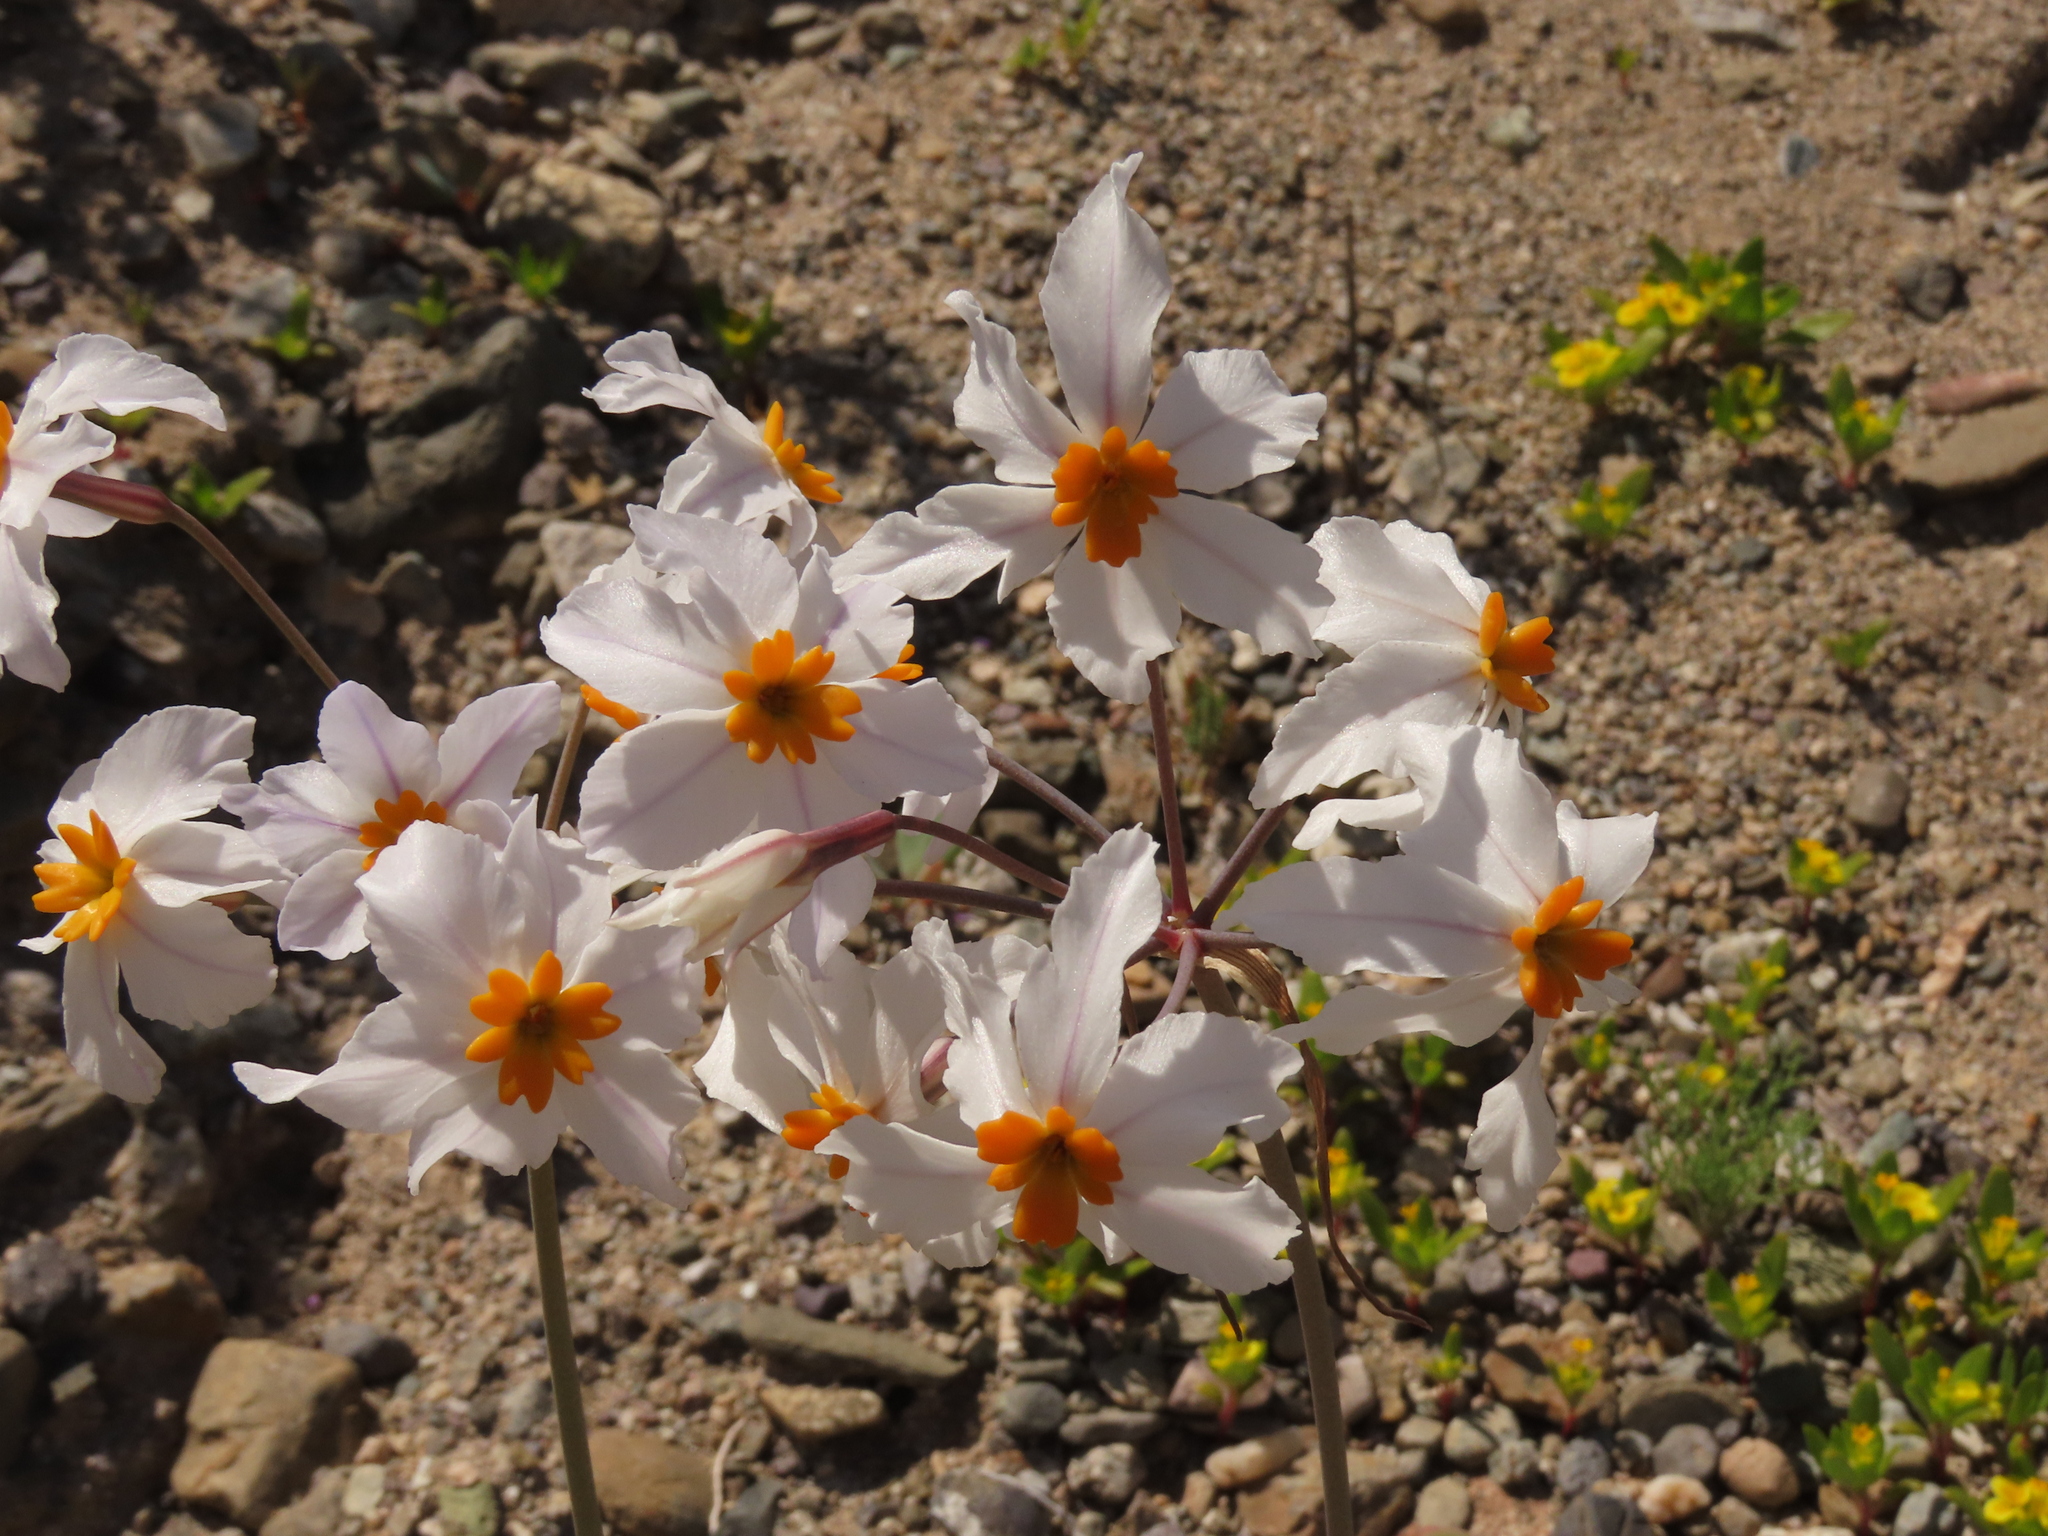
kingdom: Plantae
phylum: Tracheophyta
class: Liliopsida
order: Asparagales
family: Amaryllidaceae
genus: Leucocoryne
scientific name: Leucocoryne coronata
